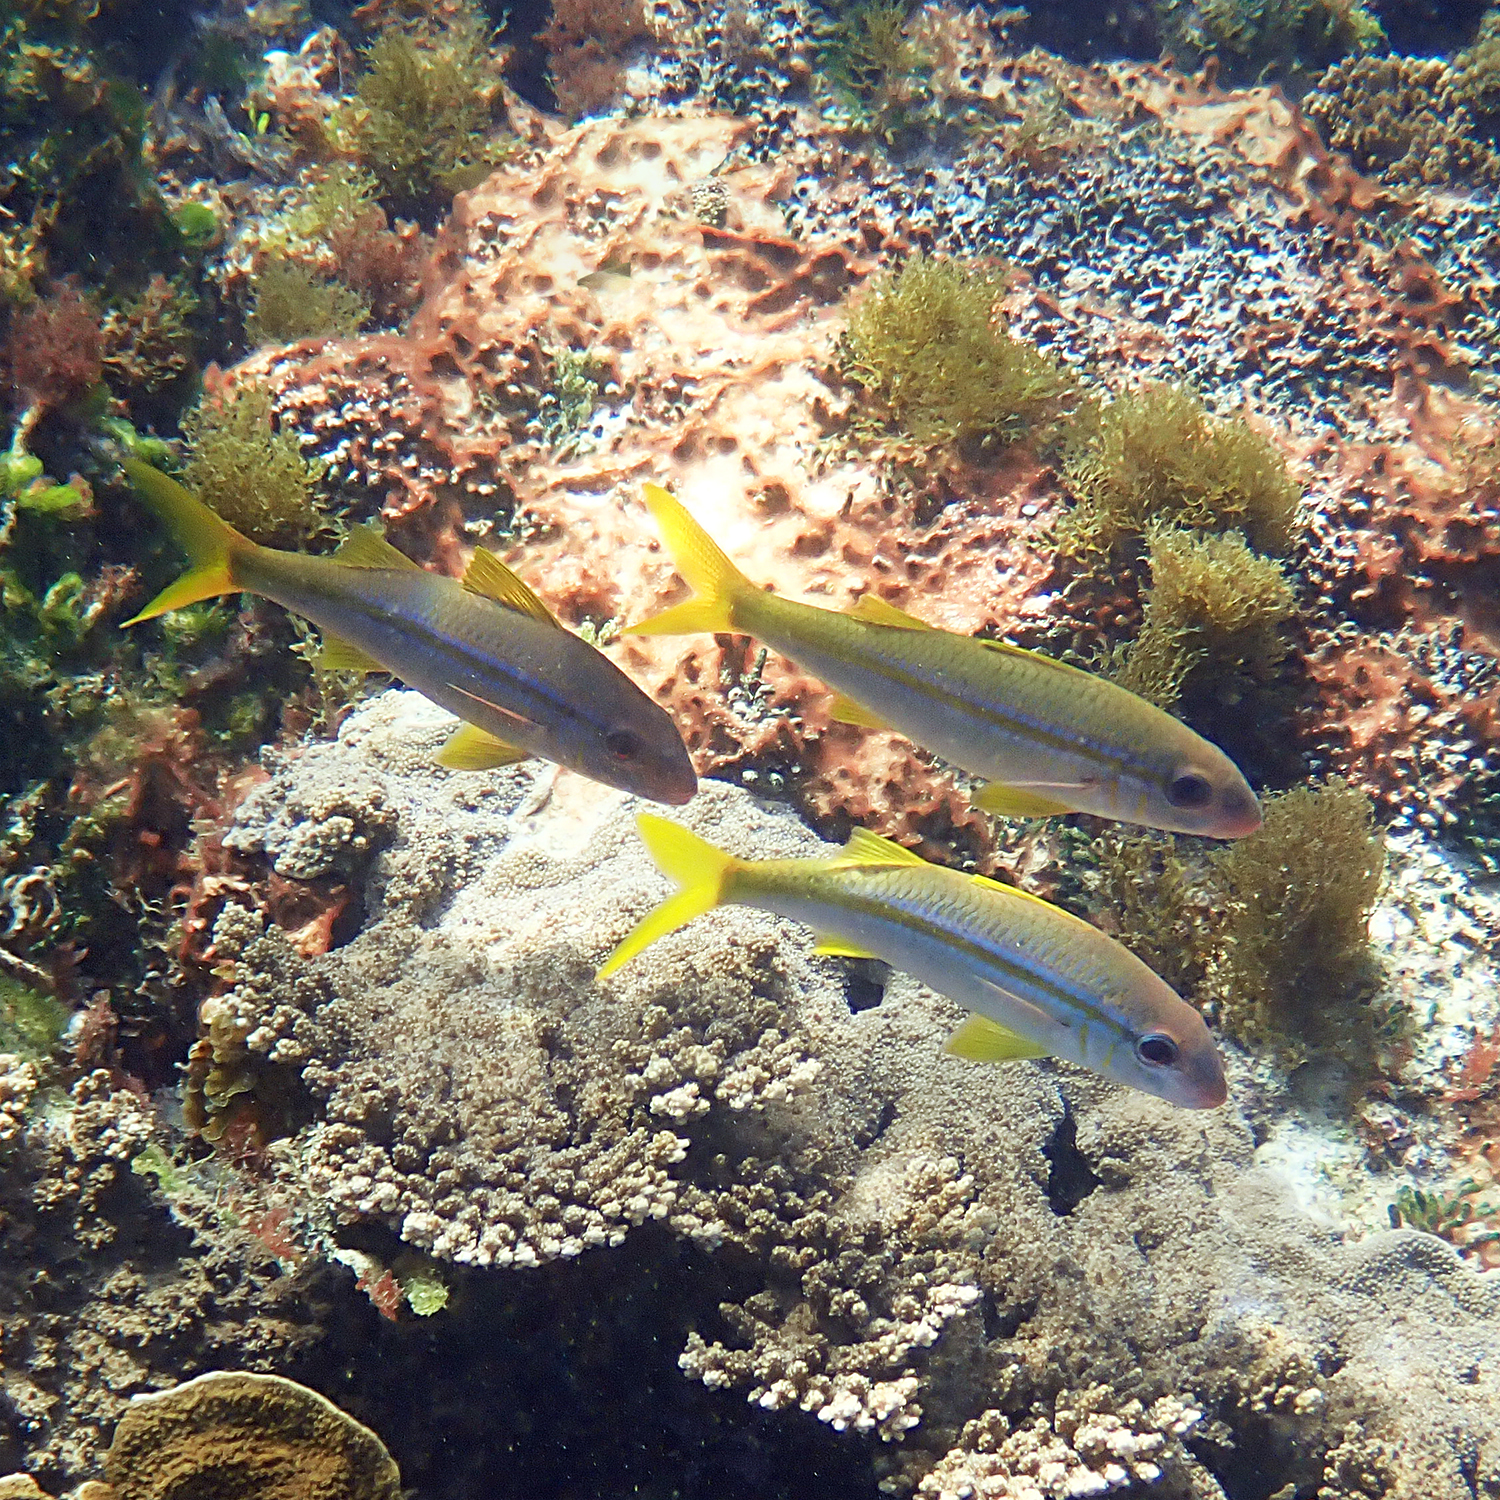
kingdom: Animalia
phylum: Chordata
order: Perciformes
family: Mullidae
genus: Mulloidichthys
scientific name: Mulloidichthys vanicolensis
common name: Yellowfin goatfish
